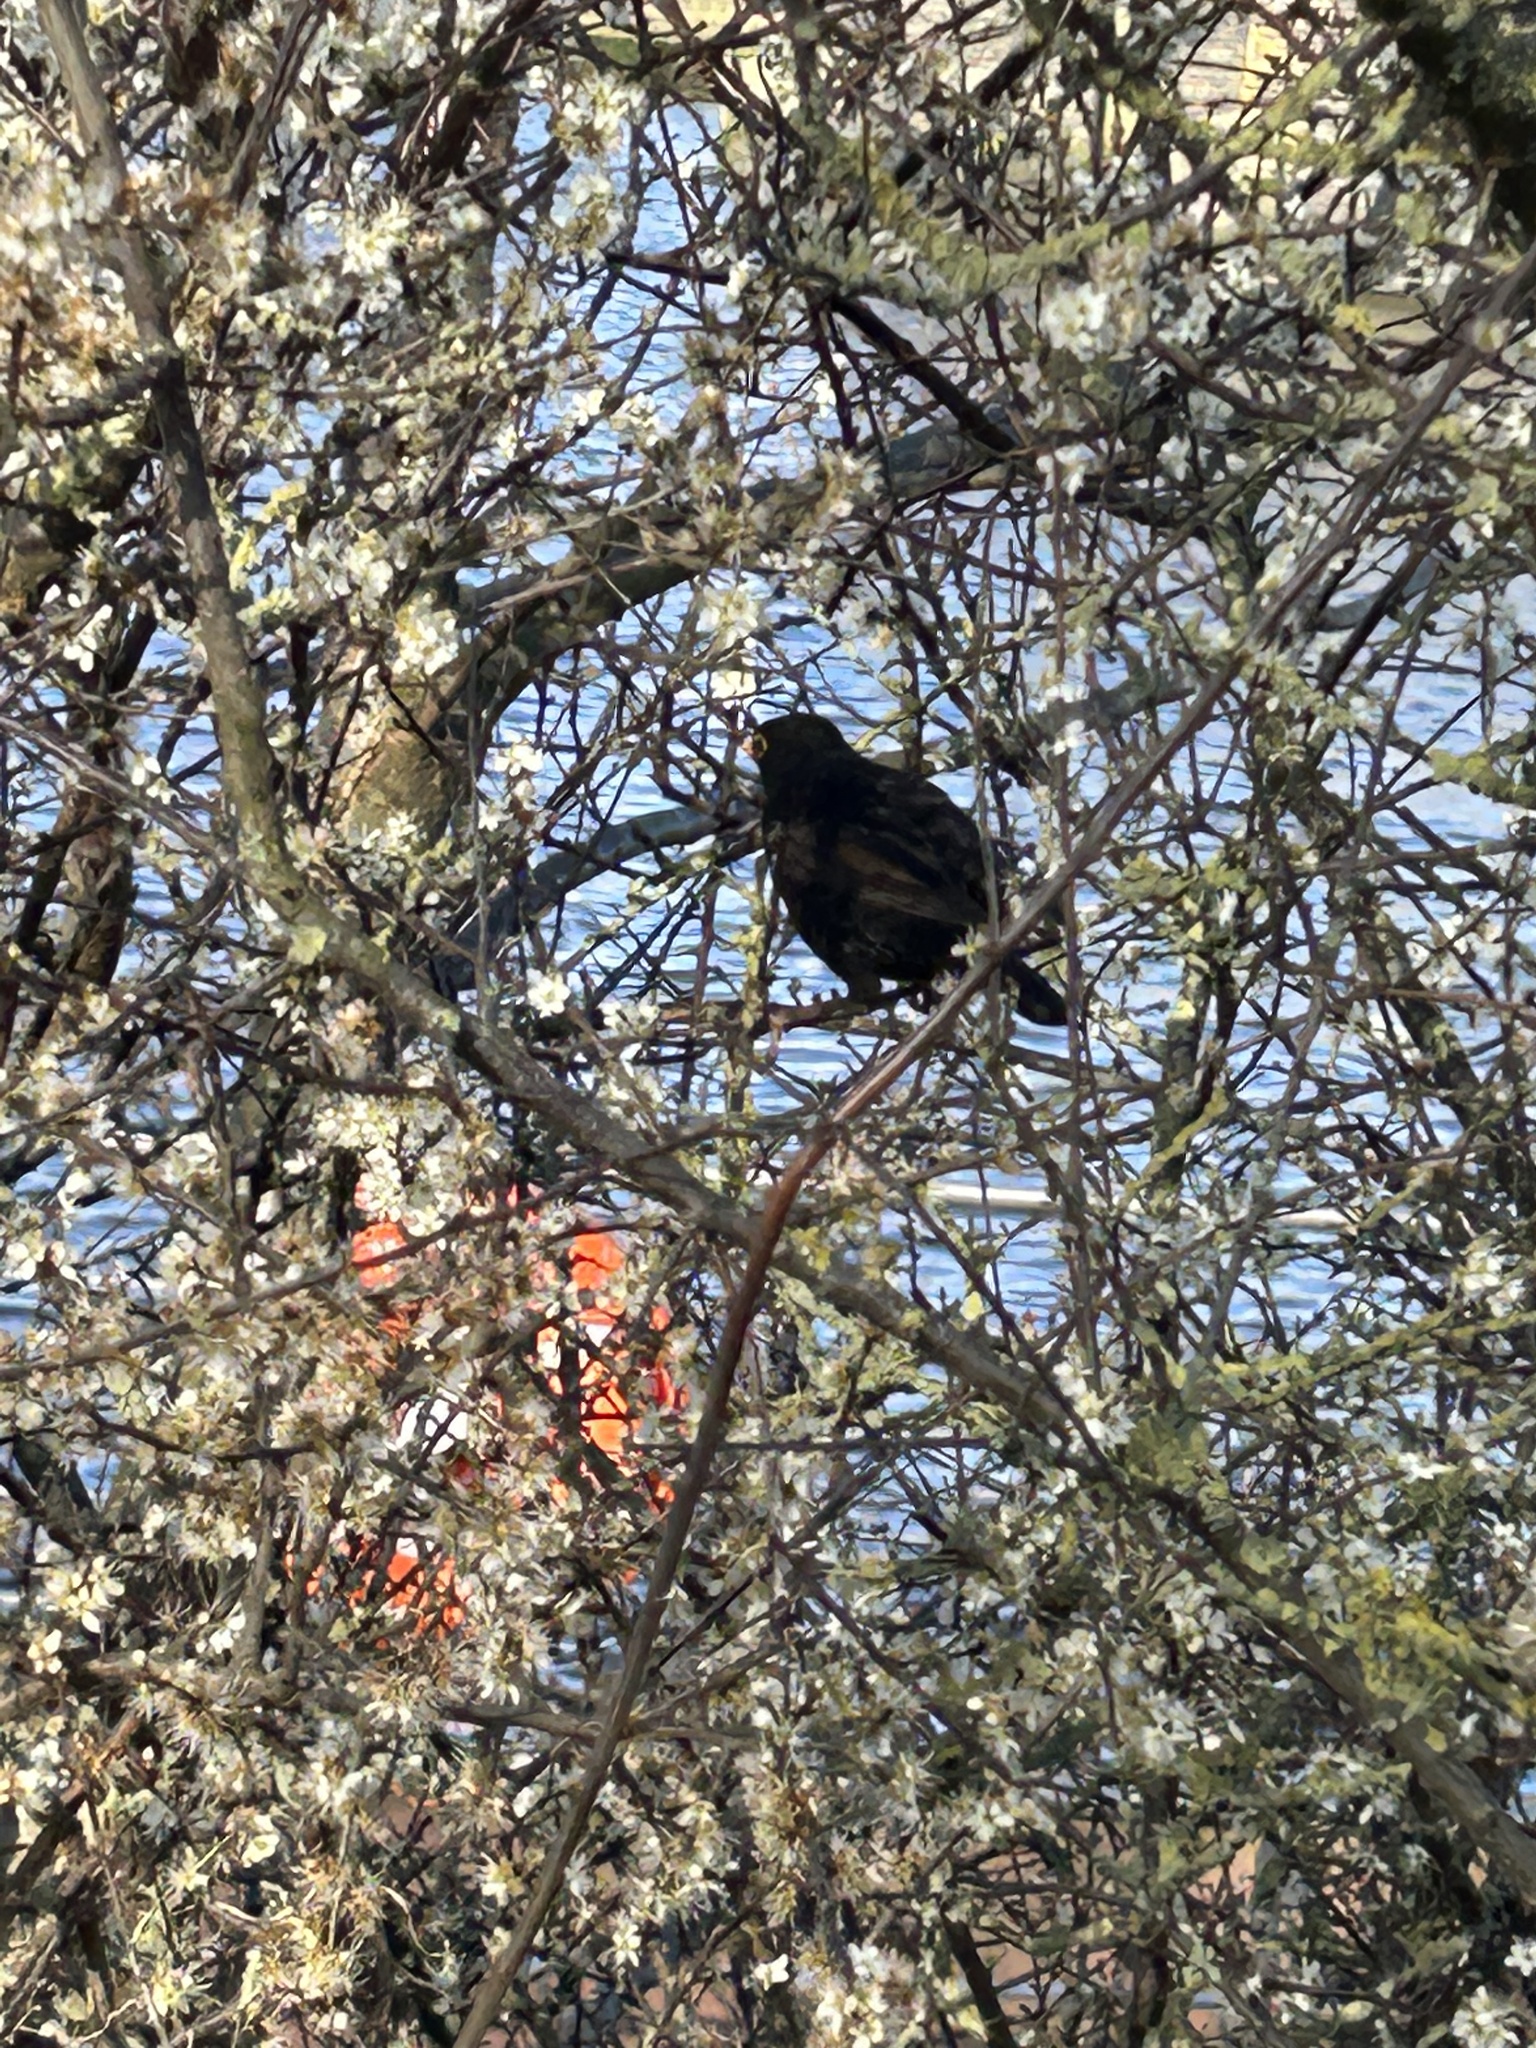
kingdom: Animalia
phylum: Chordata
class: Aves
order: Passeriformes
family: Turdidae
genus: Turdus
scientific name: Turdus merula
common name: Common blackbird
